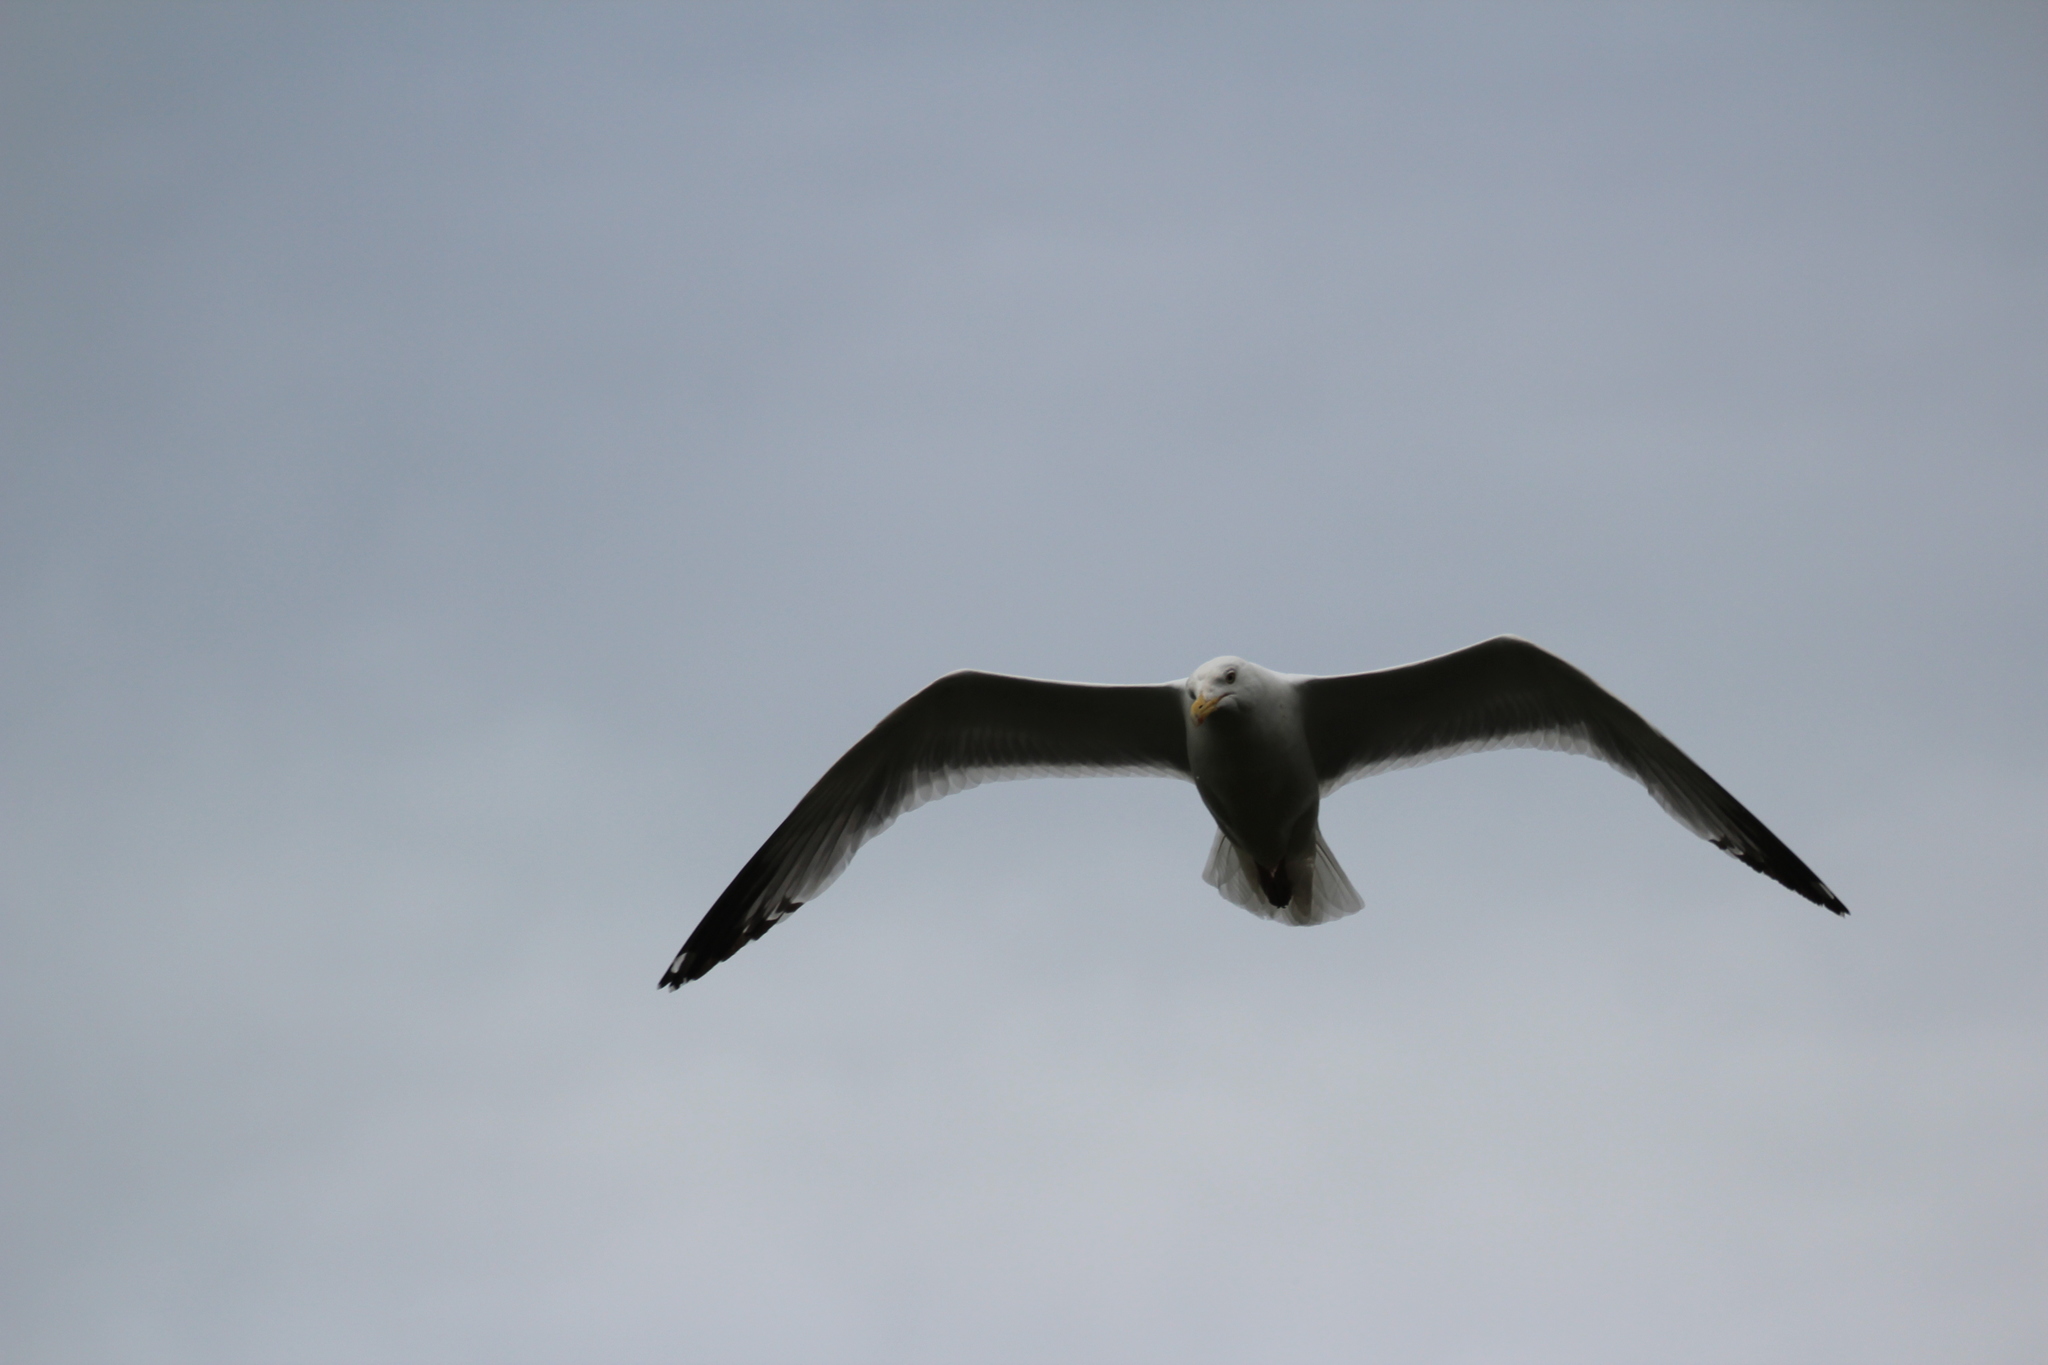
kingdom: Animalia
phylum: Chordata
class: Aves
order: Charadriiformes
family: Laridae
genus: Larus
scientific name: Larus argentatus
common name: Herring gull
